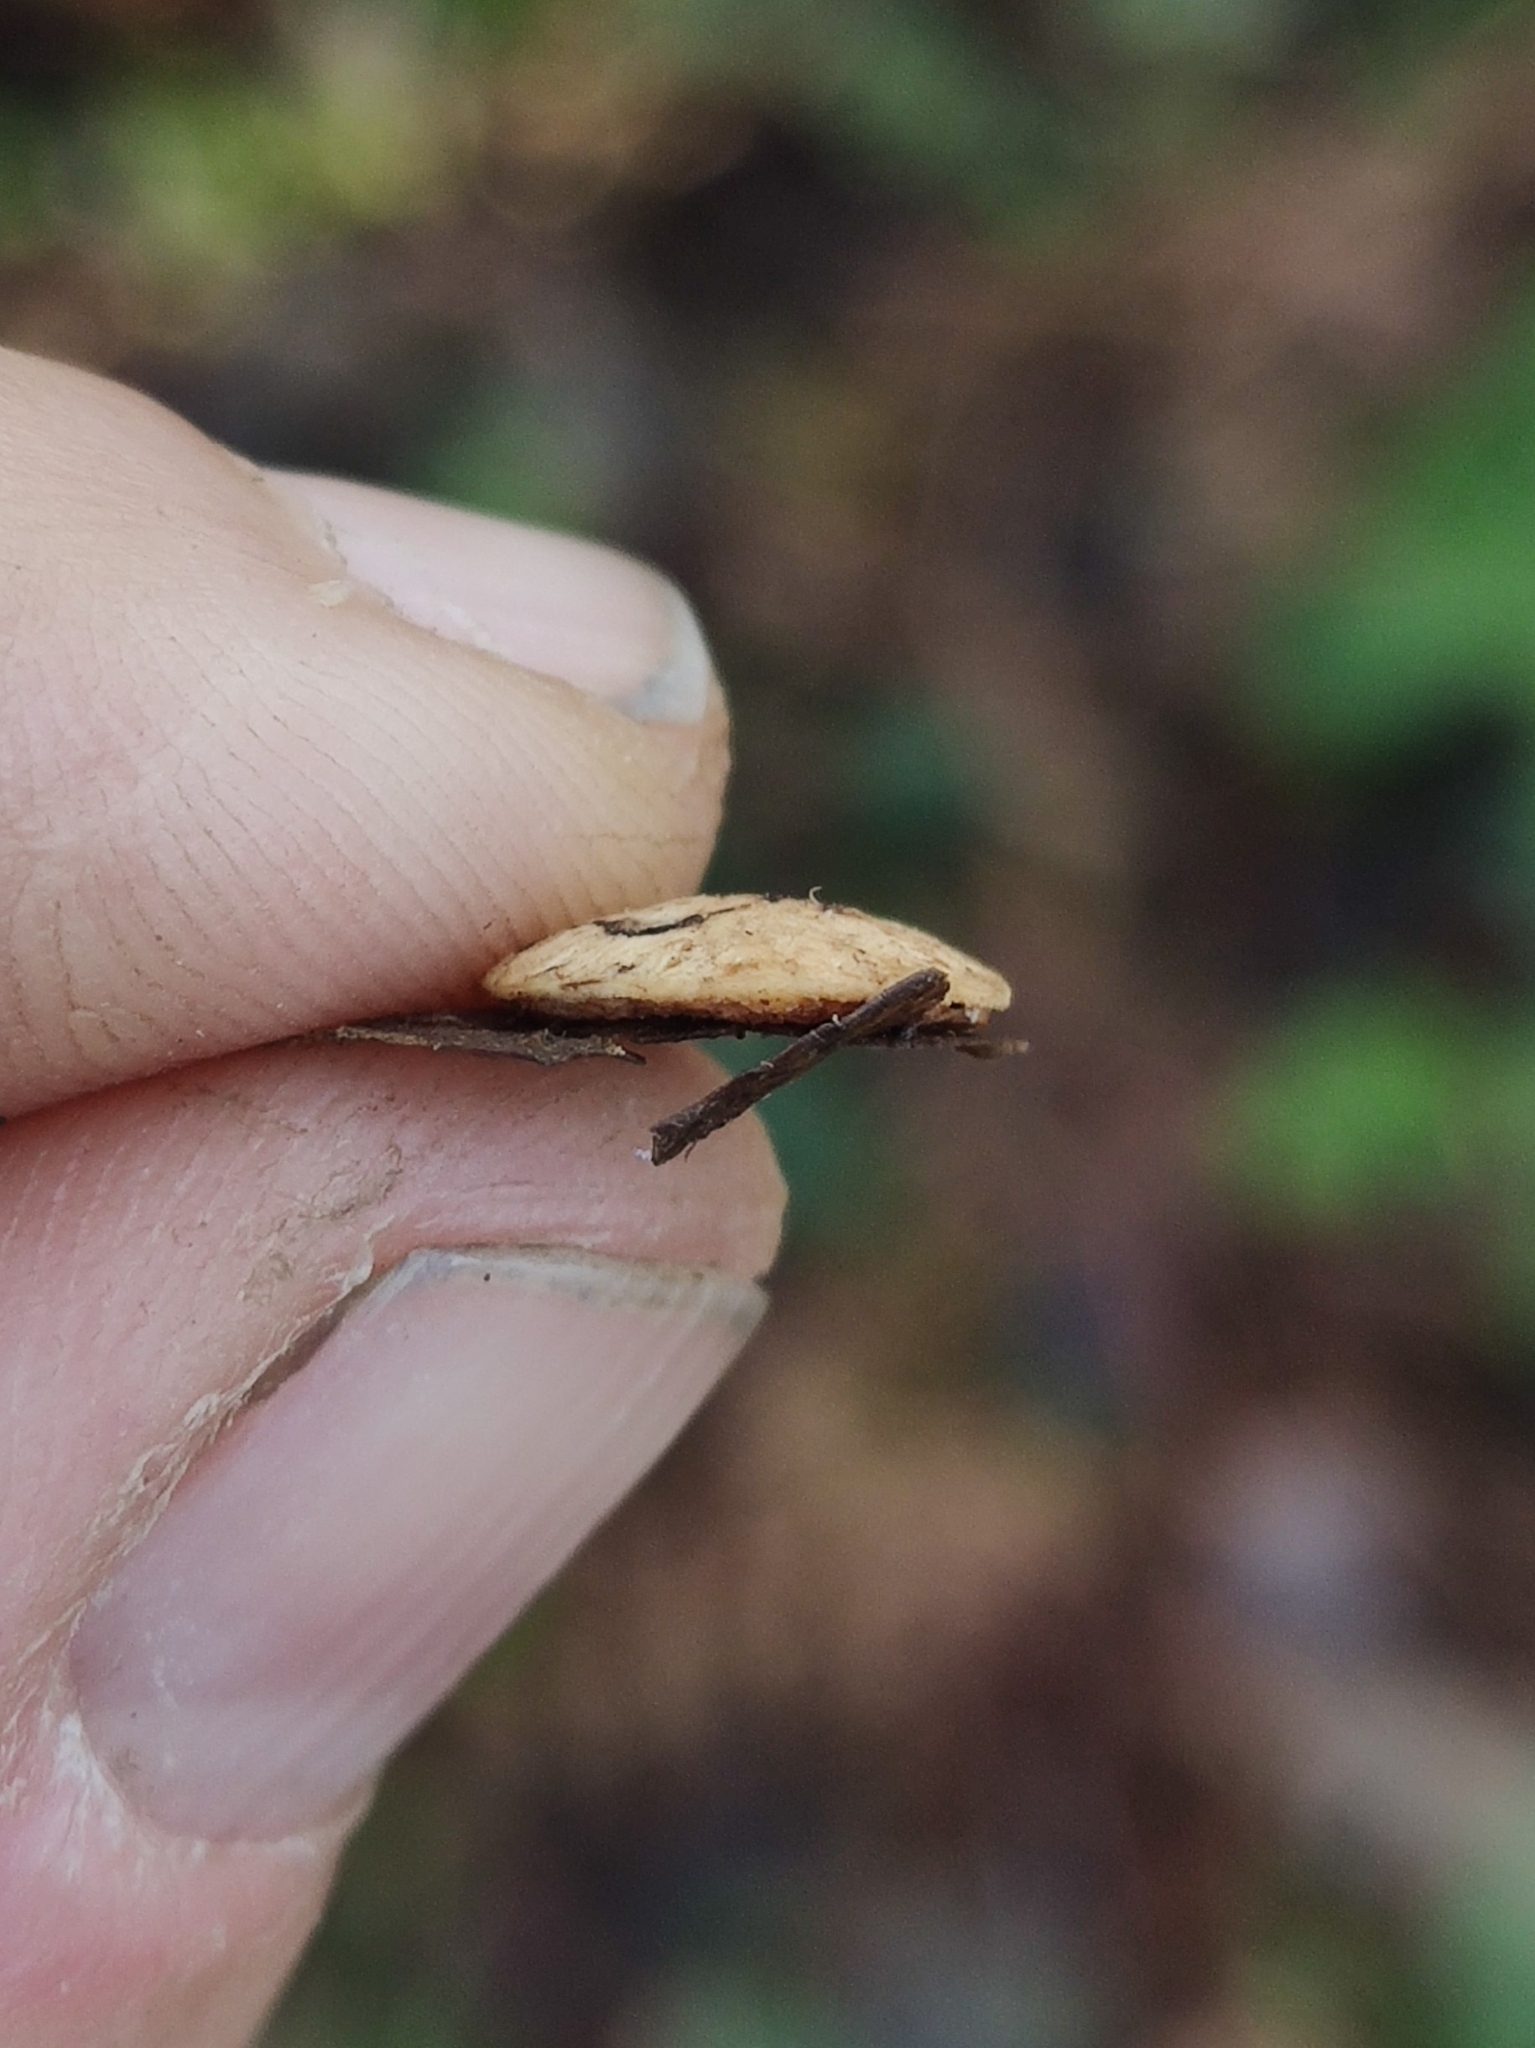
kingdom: Animalia
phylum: Arthropoda
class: Insecta
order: Hymenoptera
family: Cynipidae
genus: Neuroterus
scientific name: Neuroterus quercusbaccarum
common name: Common spangle gall
